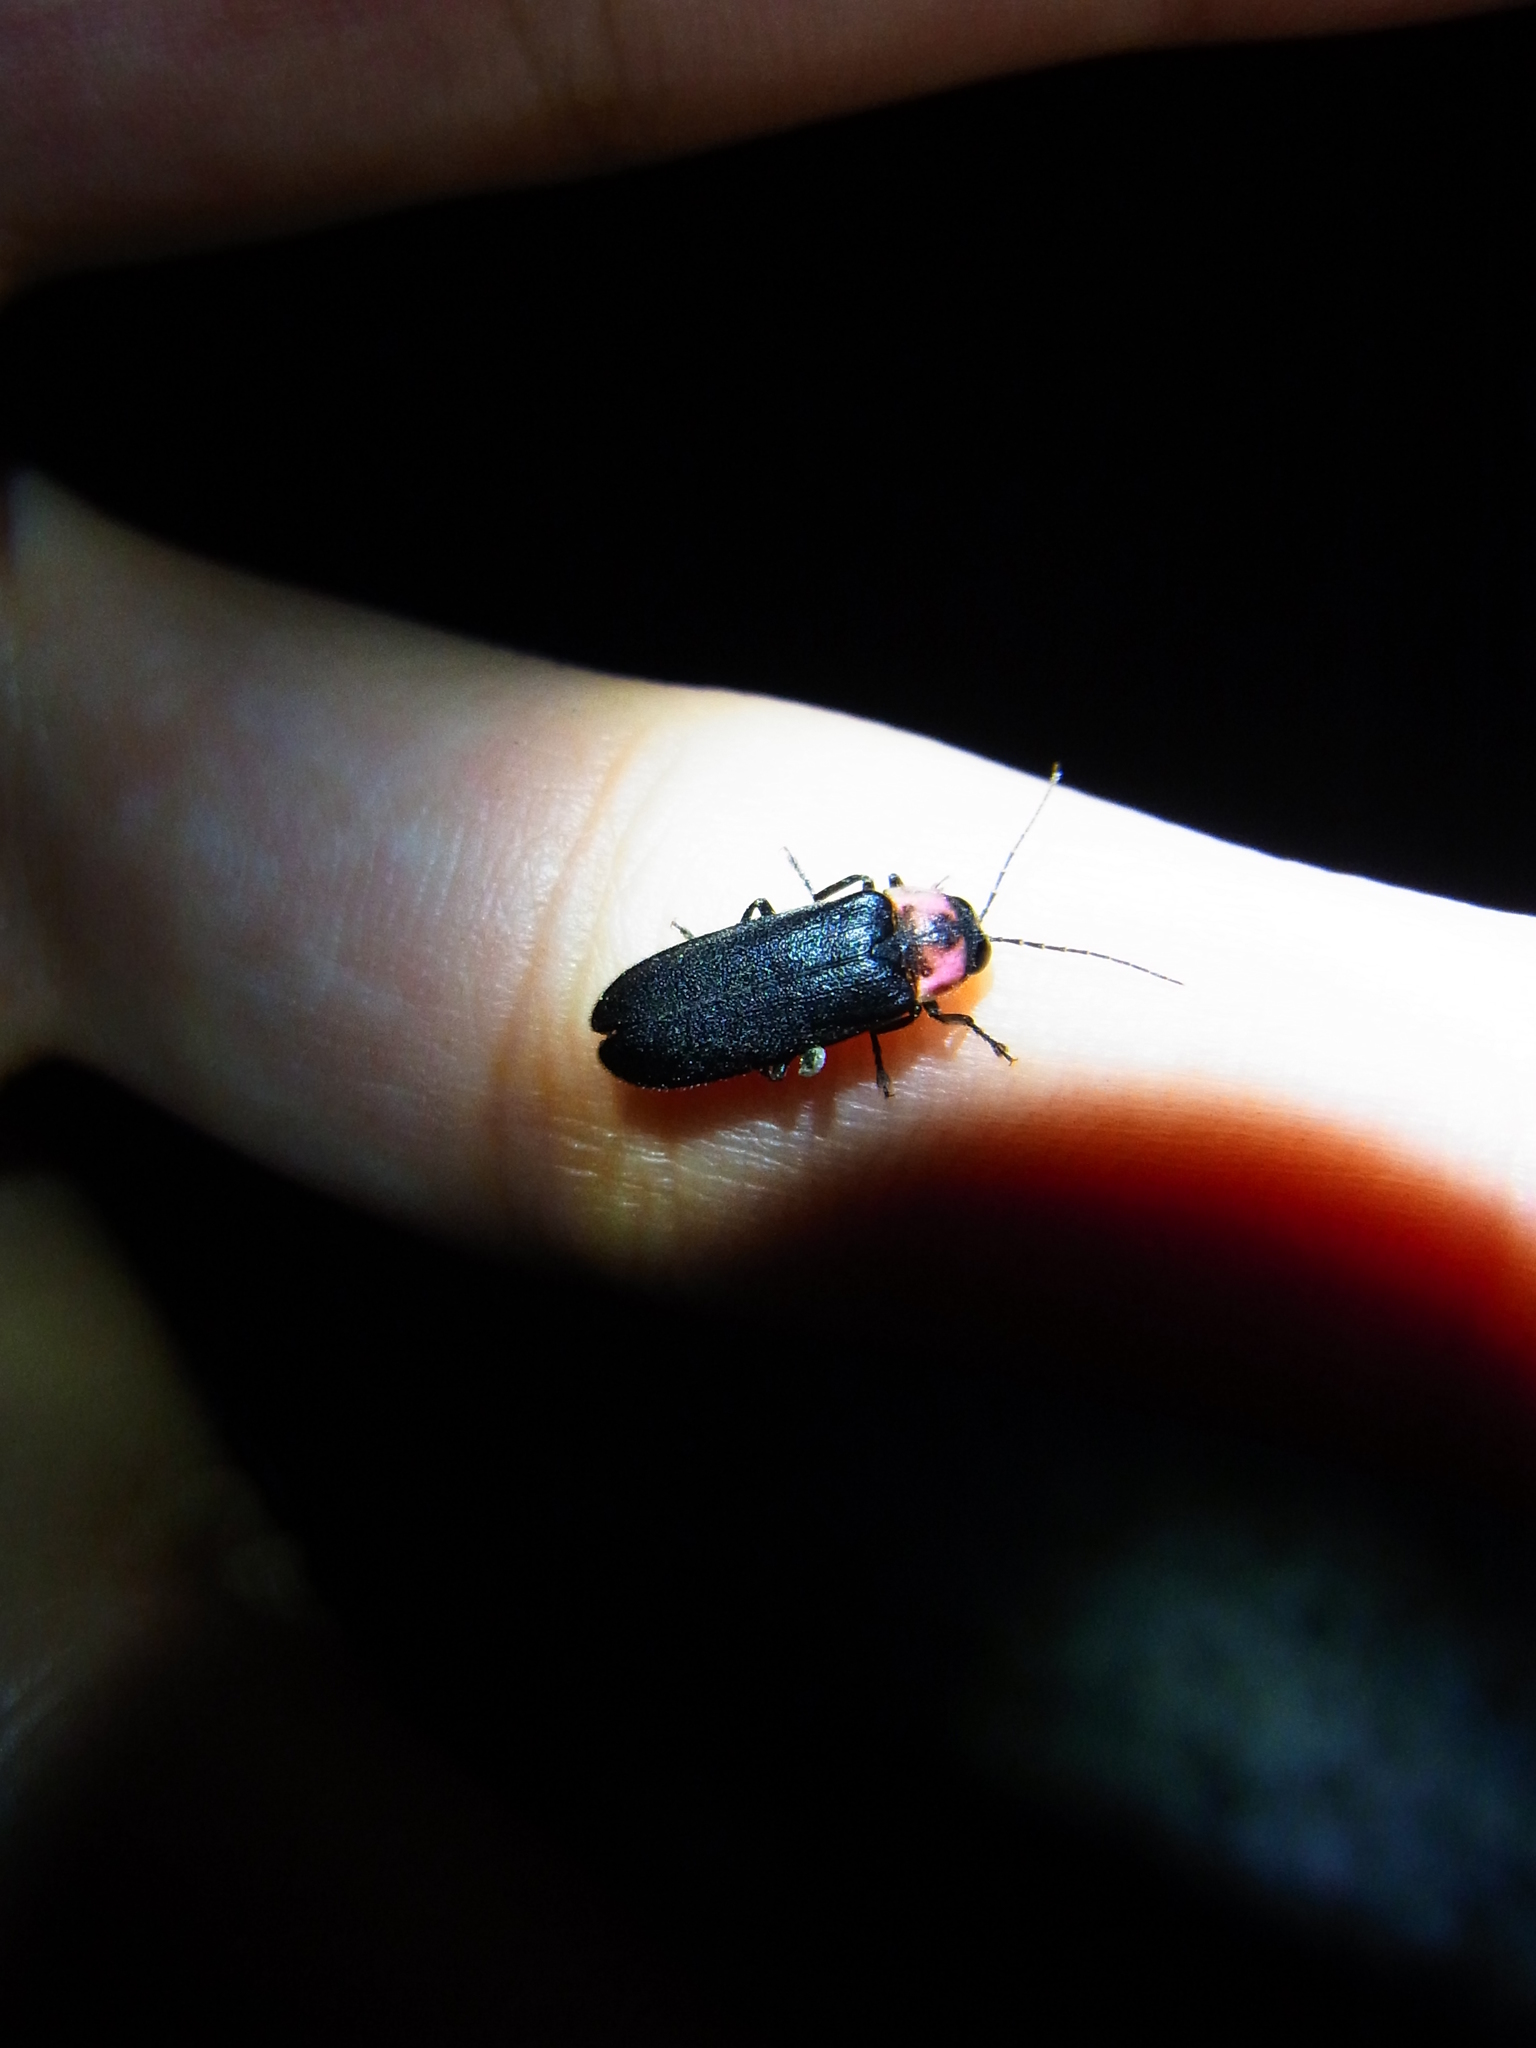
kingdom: Animalia
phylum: Arthropoda
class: Insecta
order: Coleoptera
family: Lampyridae
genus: Luciola
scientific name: Luciola cruciata
